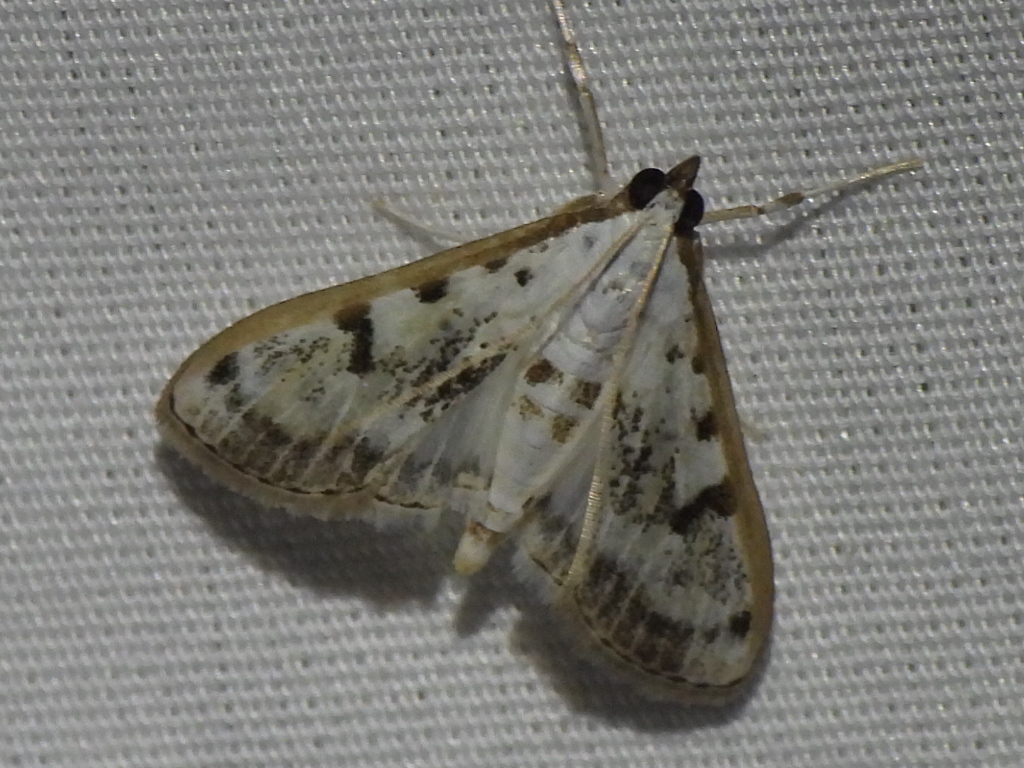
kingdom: Animalia
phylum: Arthropoda
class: Insecta
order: Lepidoptera
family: Crambidae
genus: Palpita
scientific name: Palpita gracilalis
